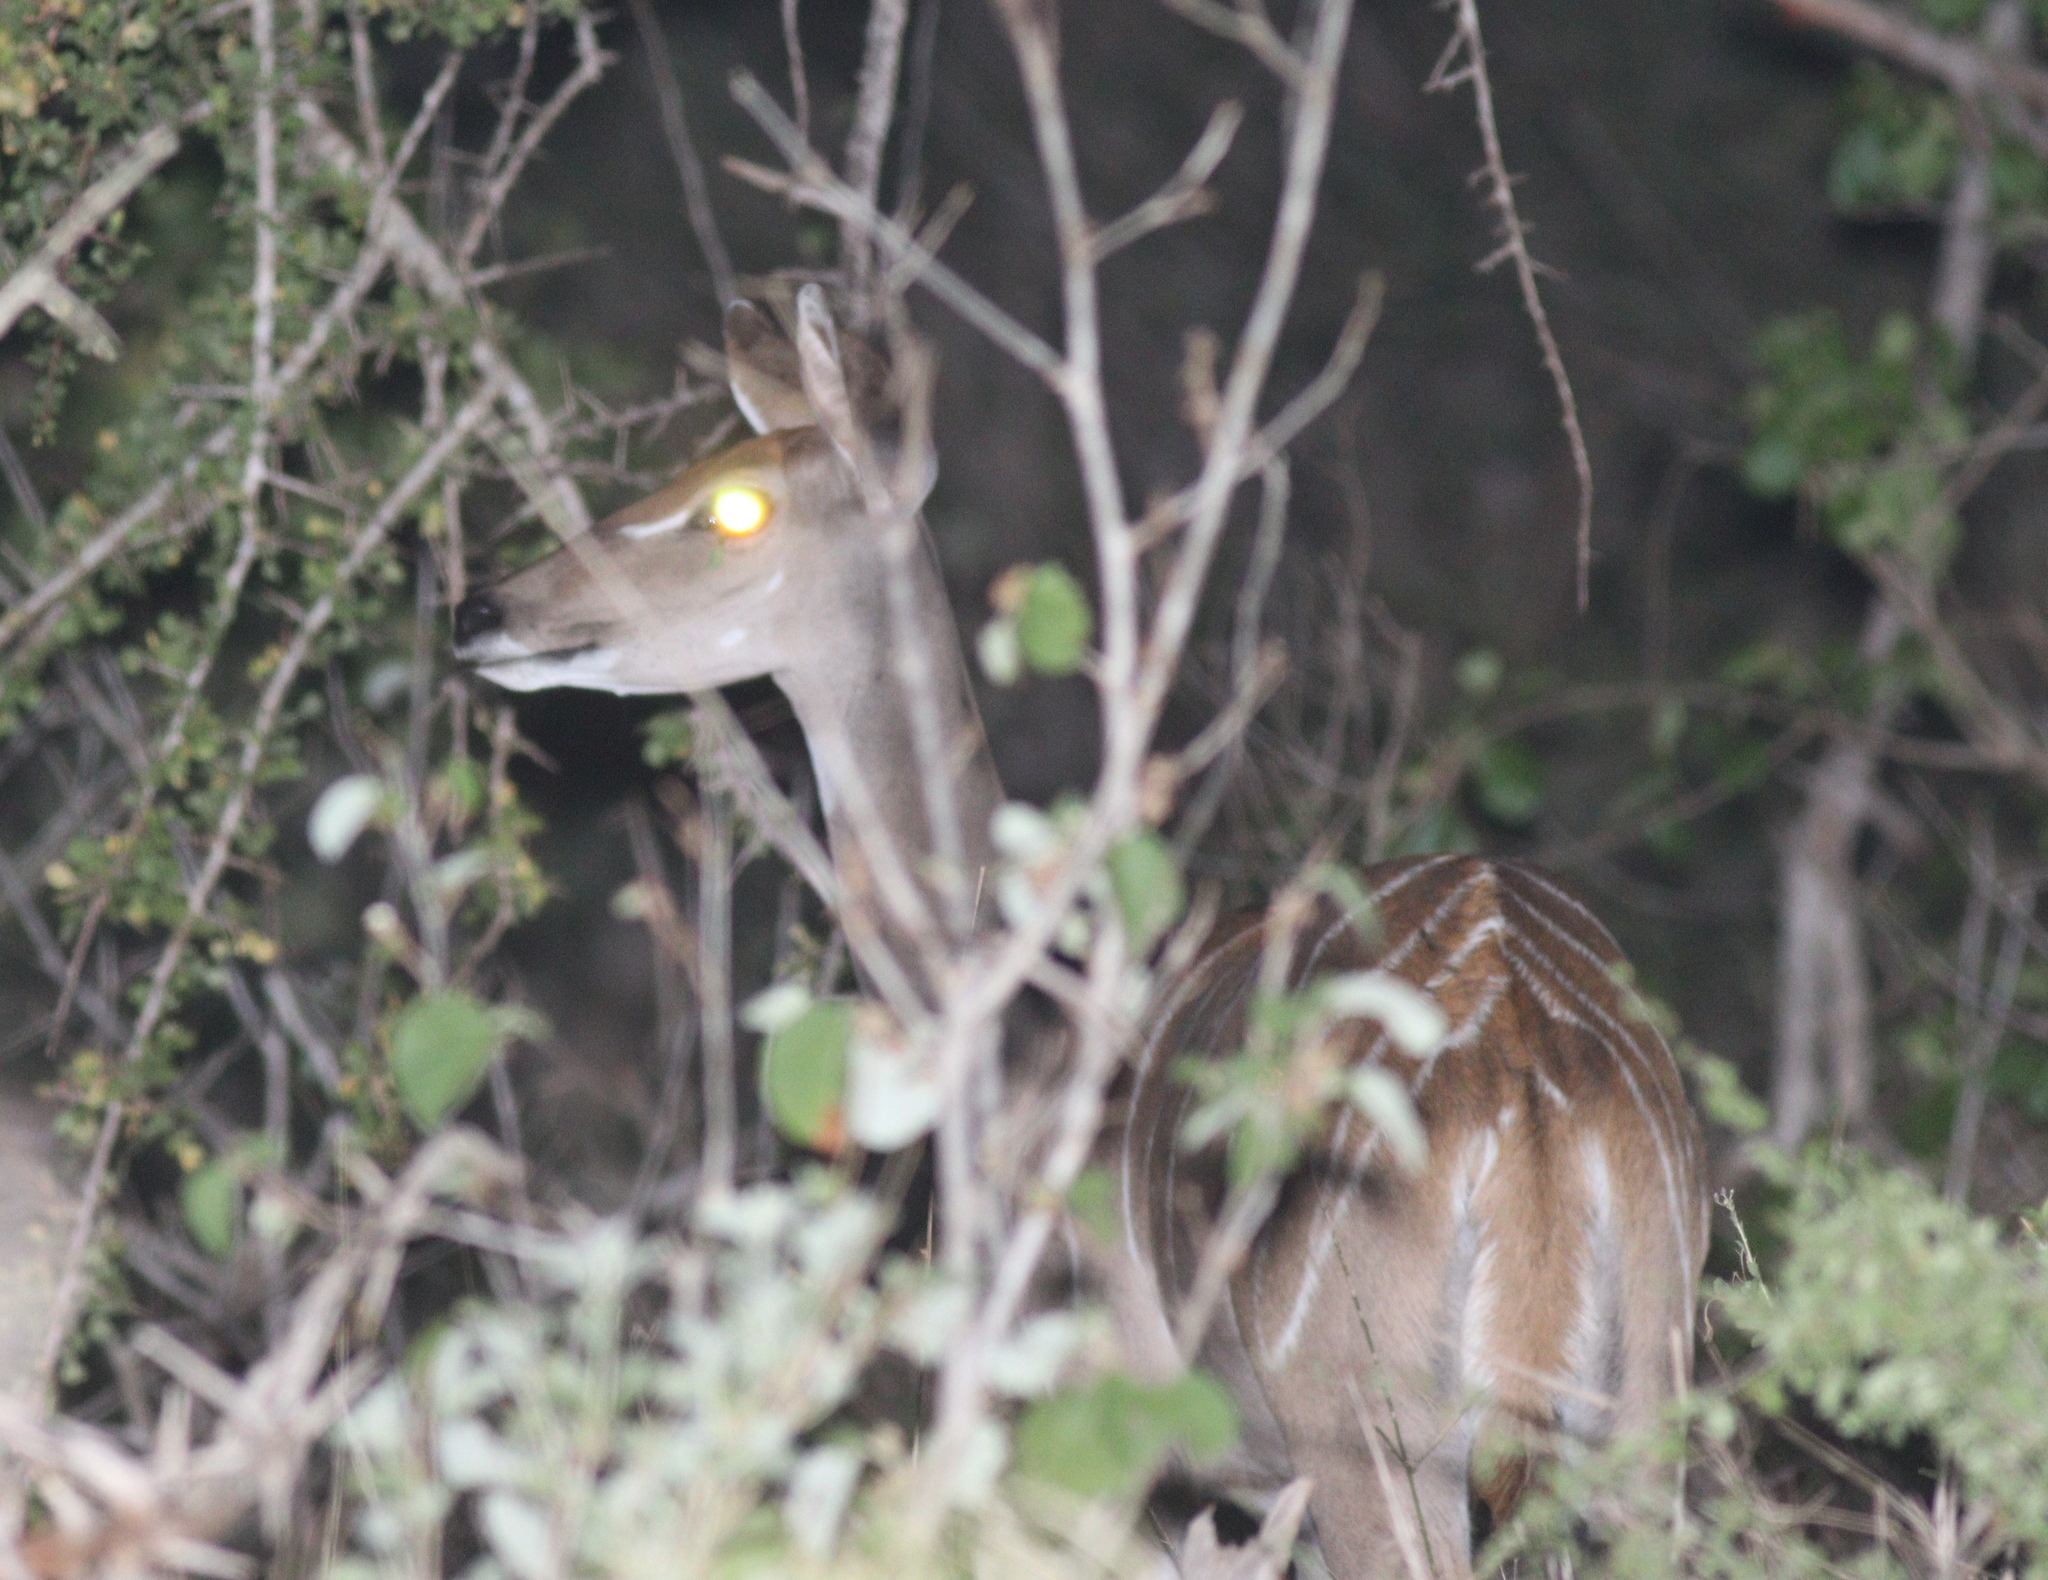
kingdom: Animalia
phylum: Chordata
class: Mammalia
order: Artiodactyla
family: Bovidae
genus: Tragelaphus
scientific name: Tragelaphus imberbis
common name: Lesser kudu
